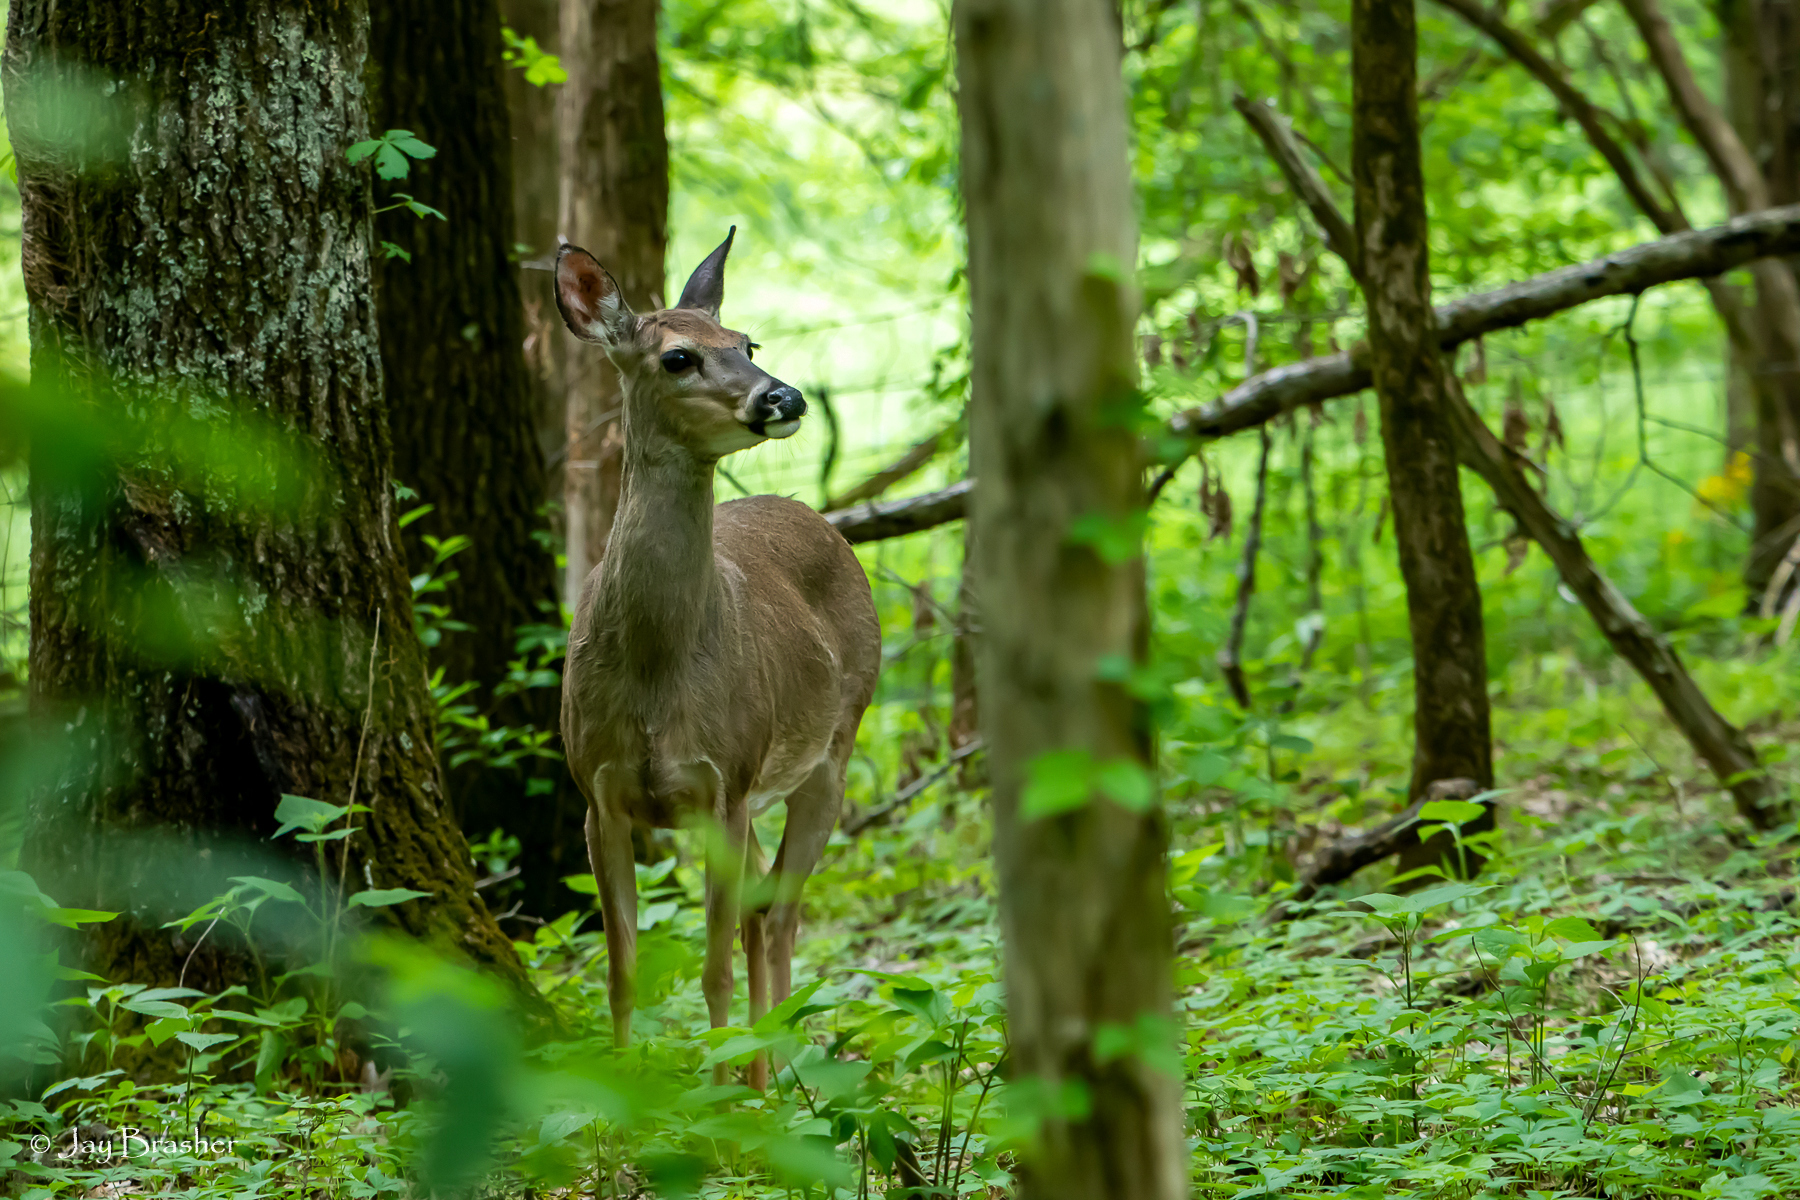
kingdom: Animalia
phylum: Chordata
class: Mammalia
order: Artiodactyla
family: Cervidae
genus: Odocoileus
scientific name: Odocoileus virginianus
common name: White-tailed deer
